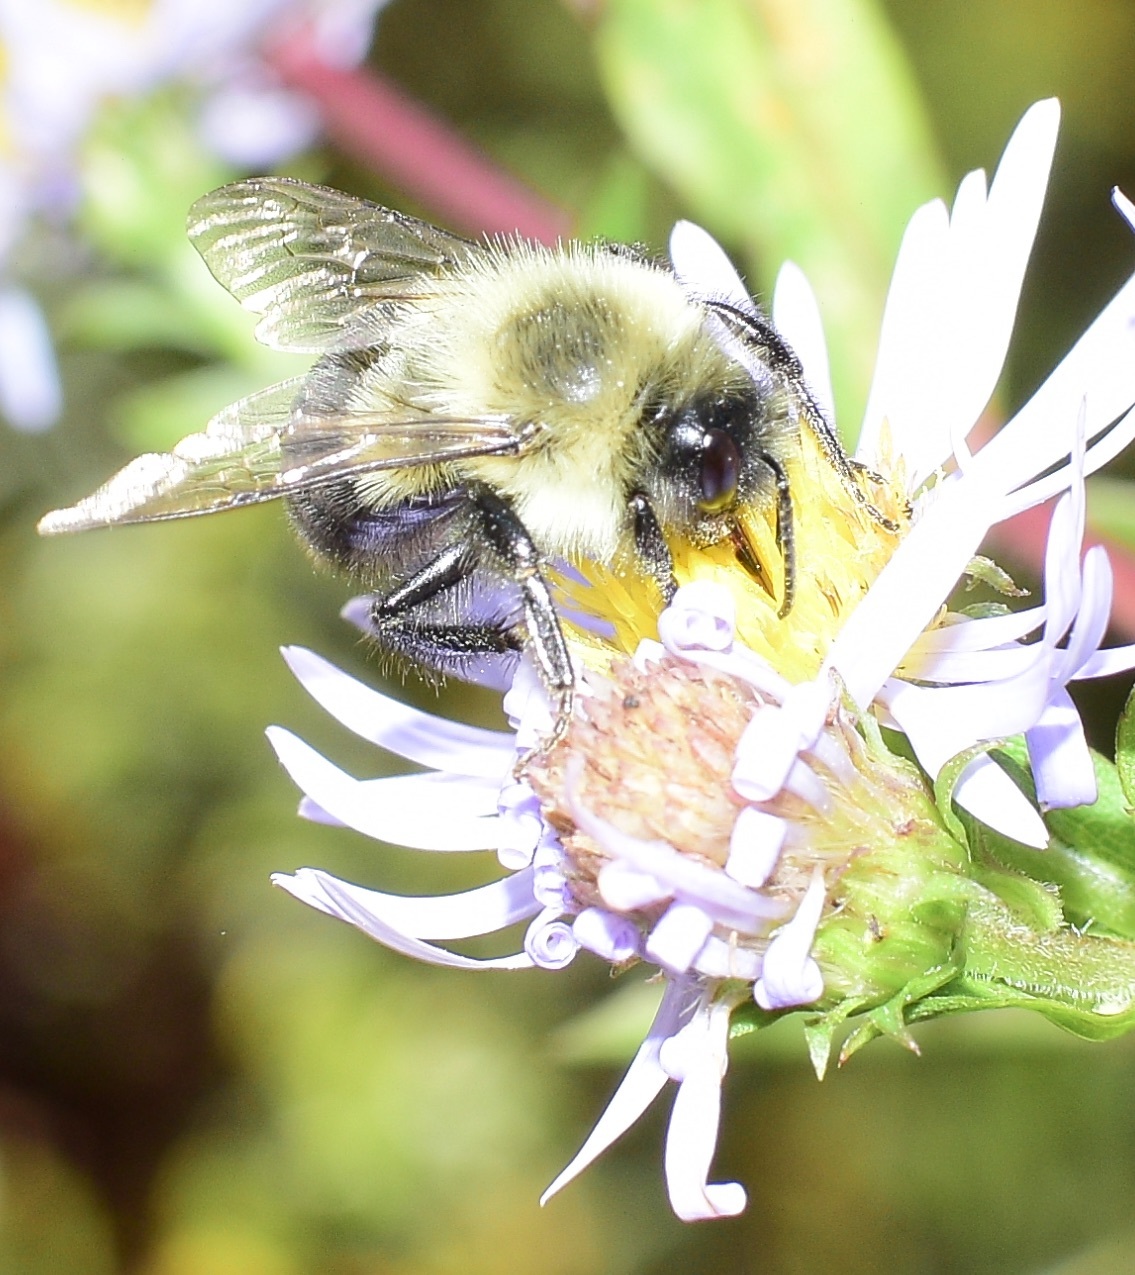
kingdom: Animalia
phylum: Arthropoda
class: Insecta
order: Hymenoptera
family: Apidae
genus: Bombus
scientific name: Bombus impatiens
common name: Common eastern bumble bee
